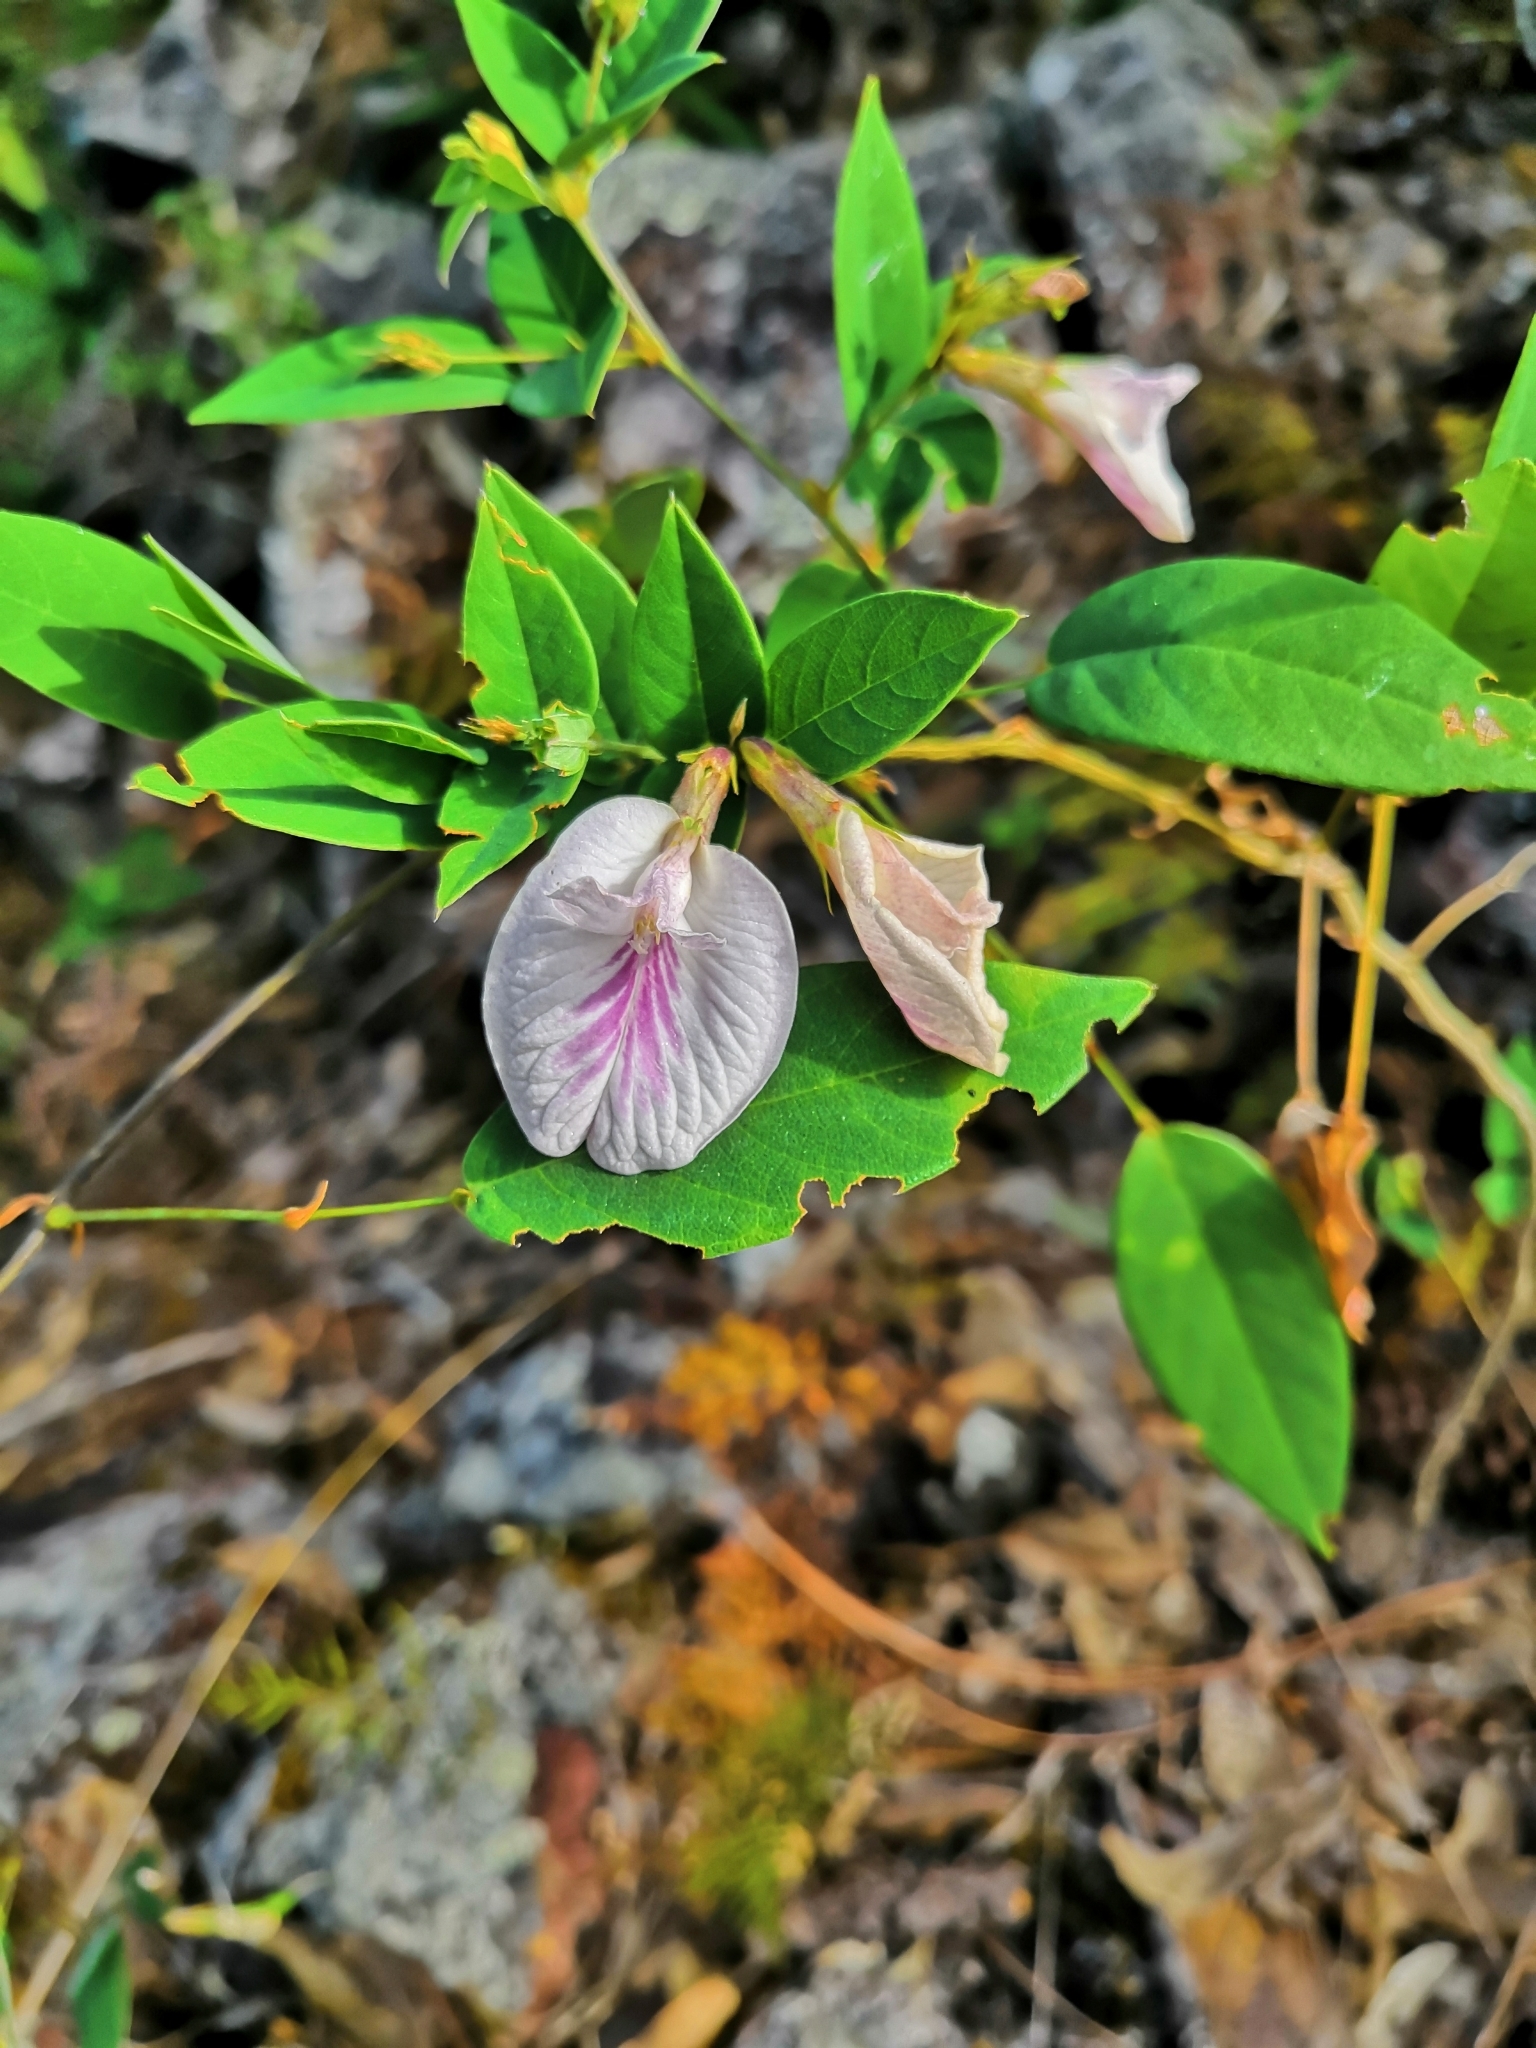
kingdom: Plantae
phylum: Tracheophyta
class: Magnoliopsida
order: Fabales
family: Fabaceae
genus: Clitoria
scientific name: Clitoria mexicana
